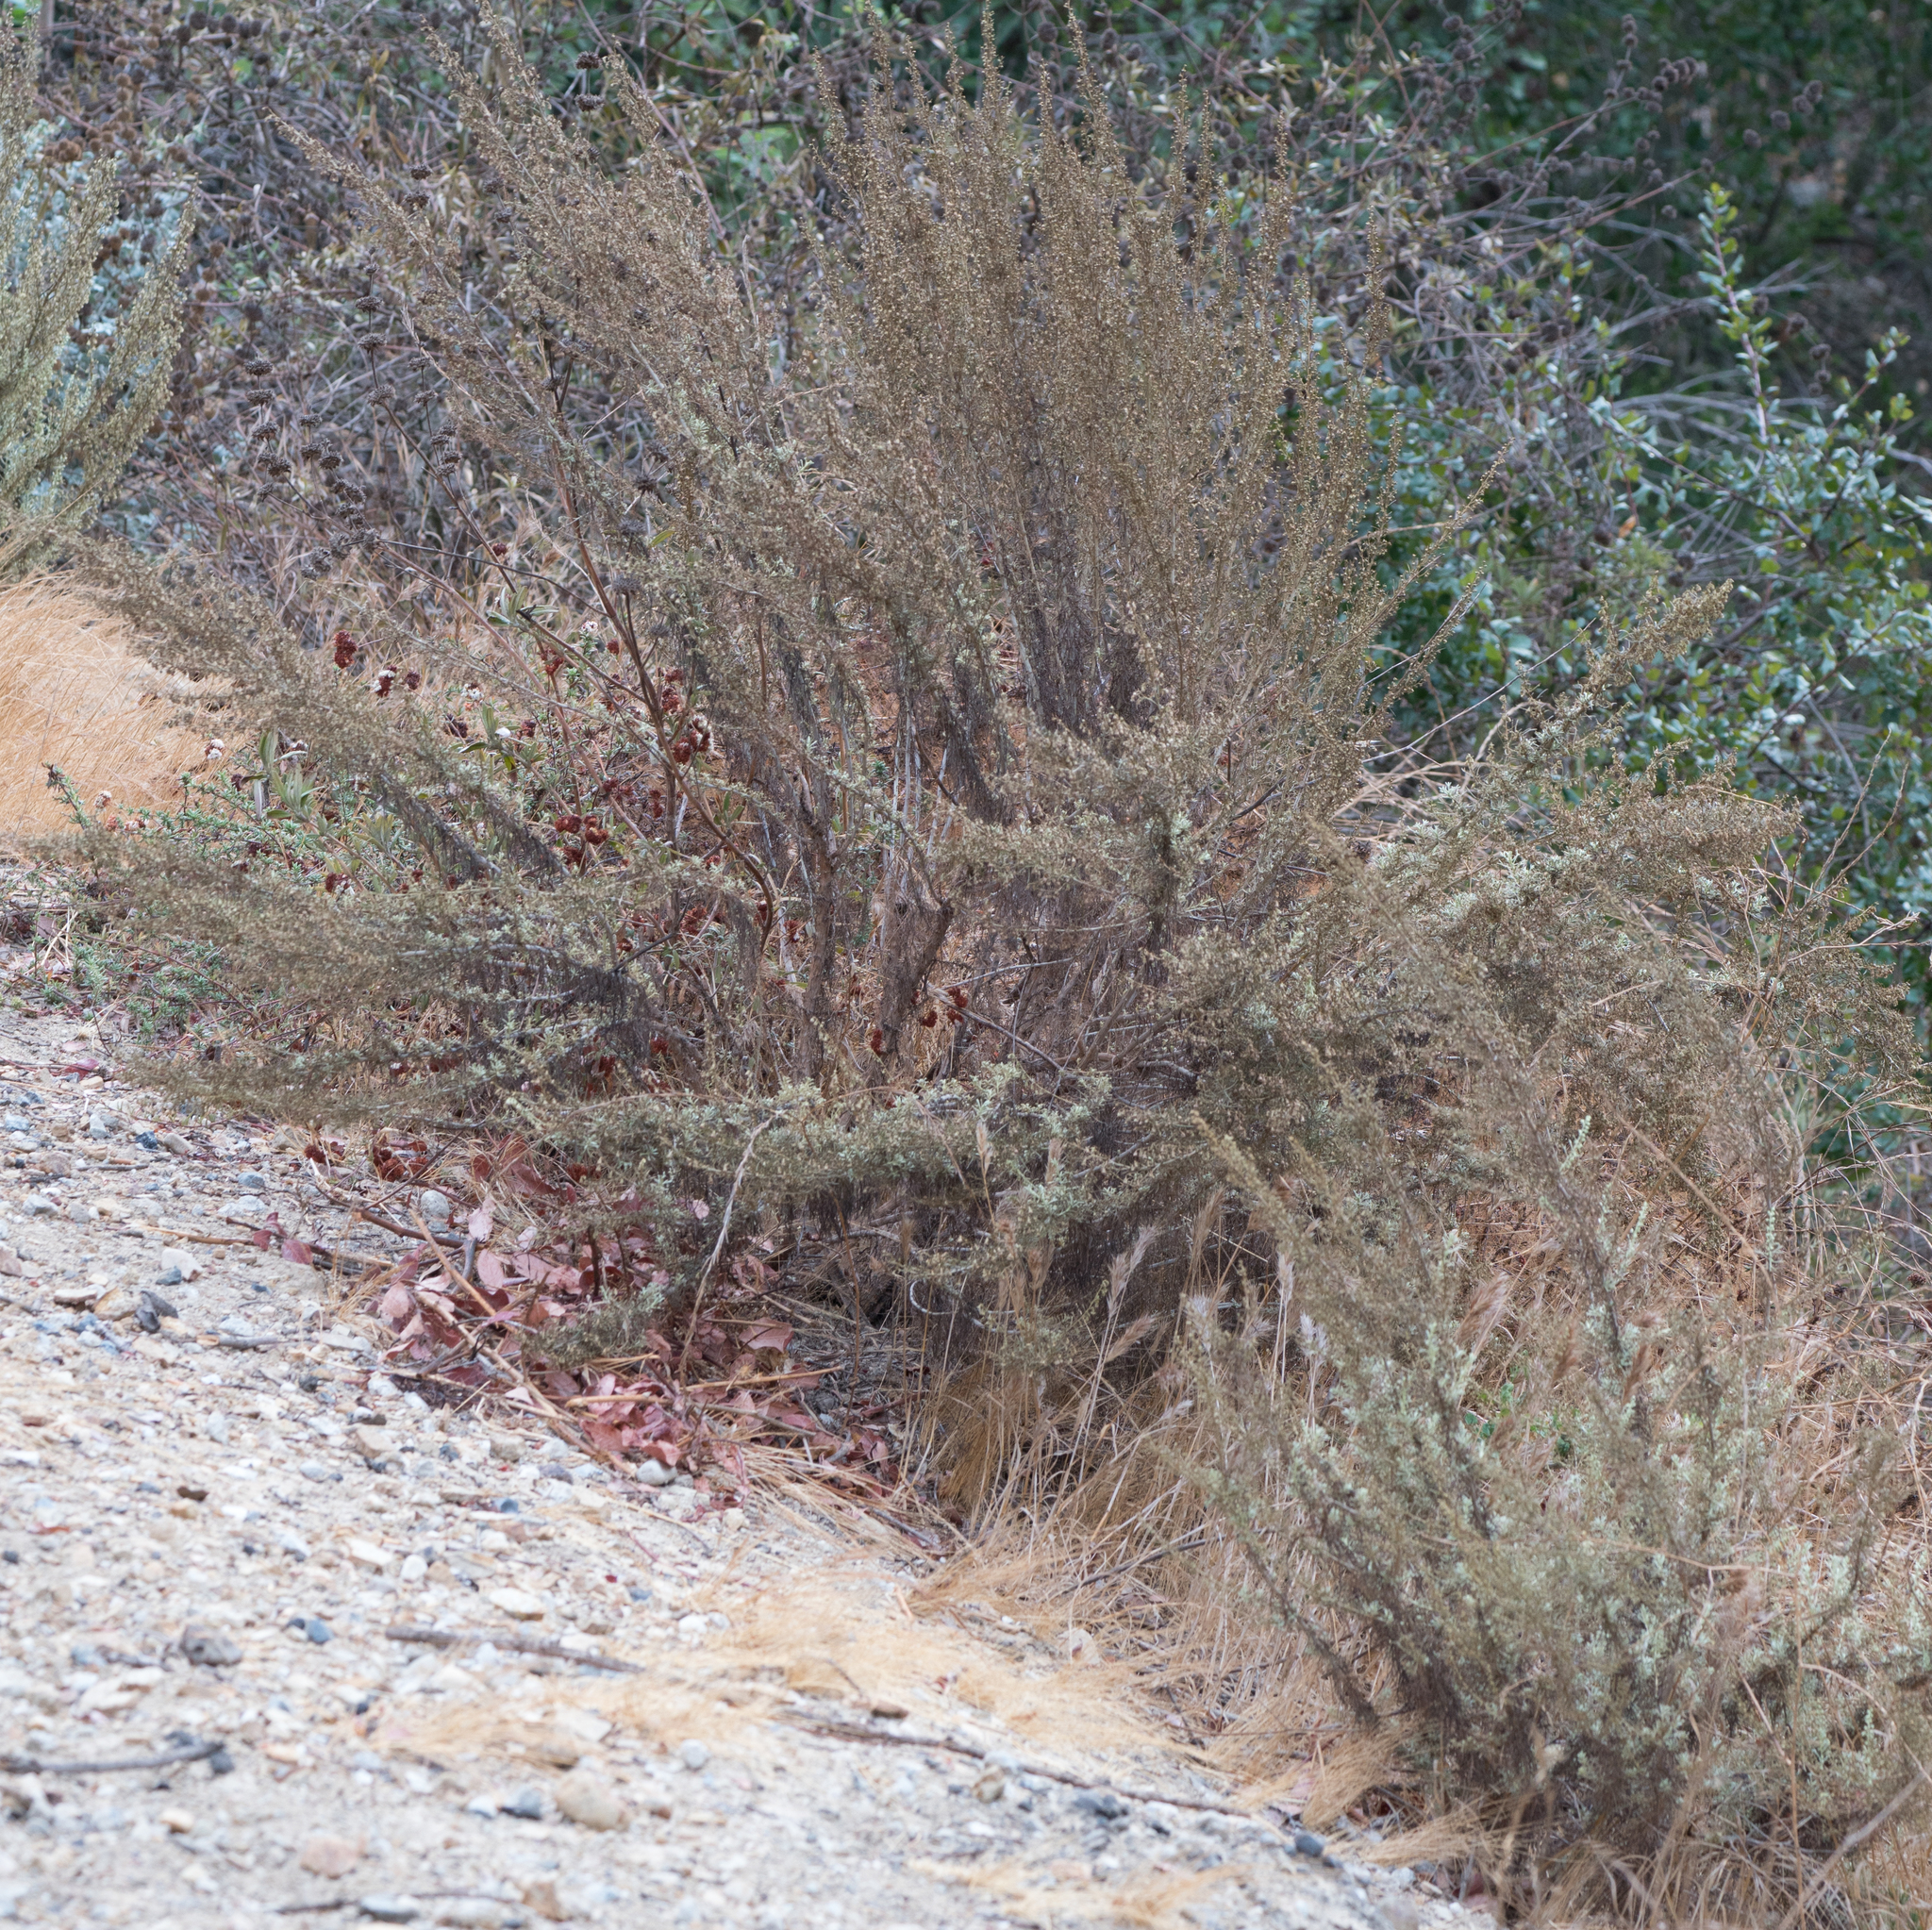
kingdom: Plantae
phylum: Tracheophyta
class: Magnoliopsida
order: Asterales
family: Asteraceae
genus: Artemisia
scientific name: Artemisia californica
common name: California sagebrush
